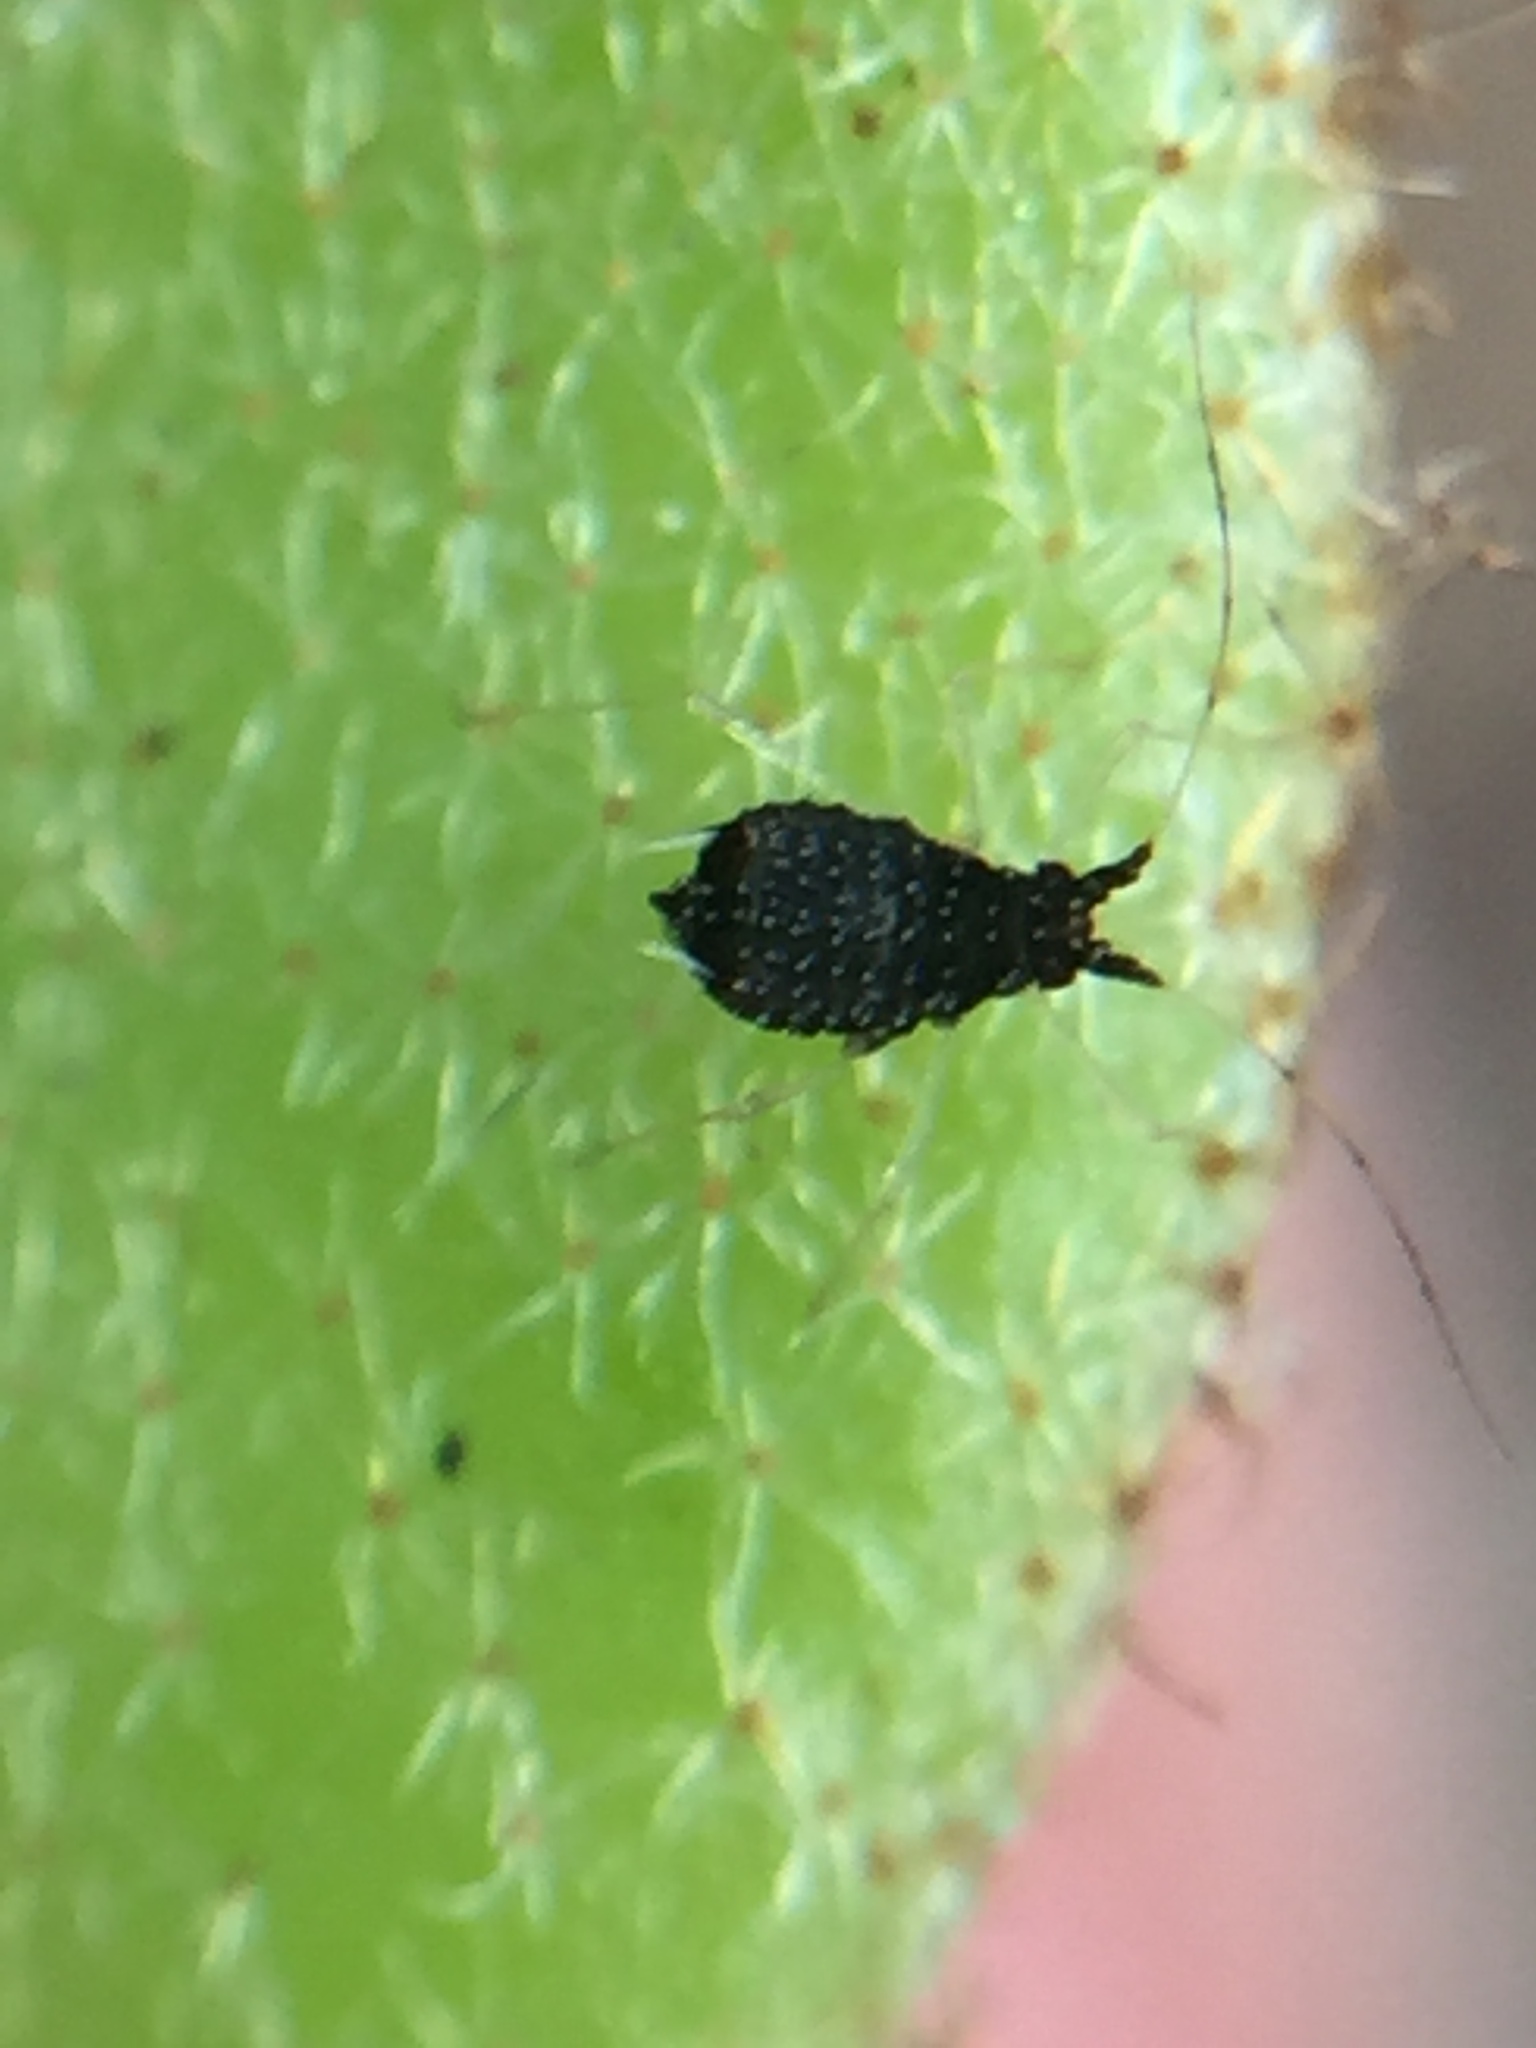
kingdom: Animalia
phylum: Arthropoda
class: Insecta
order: Hemiptera
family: Aphididae
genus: Idiopterus
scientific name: Idiopterus nephrelepidis
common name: Fern aphid
